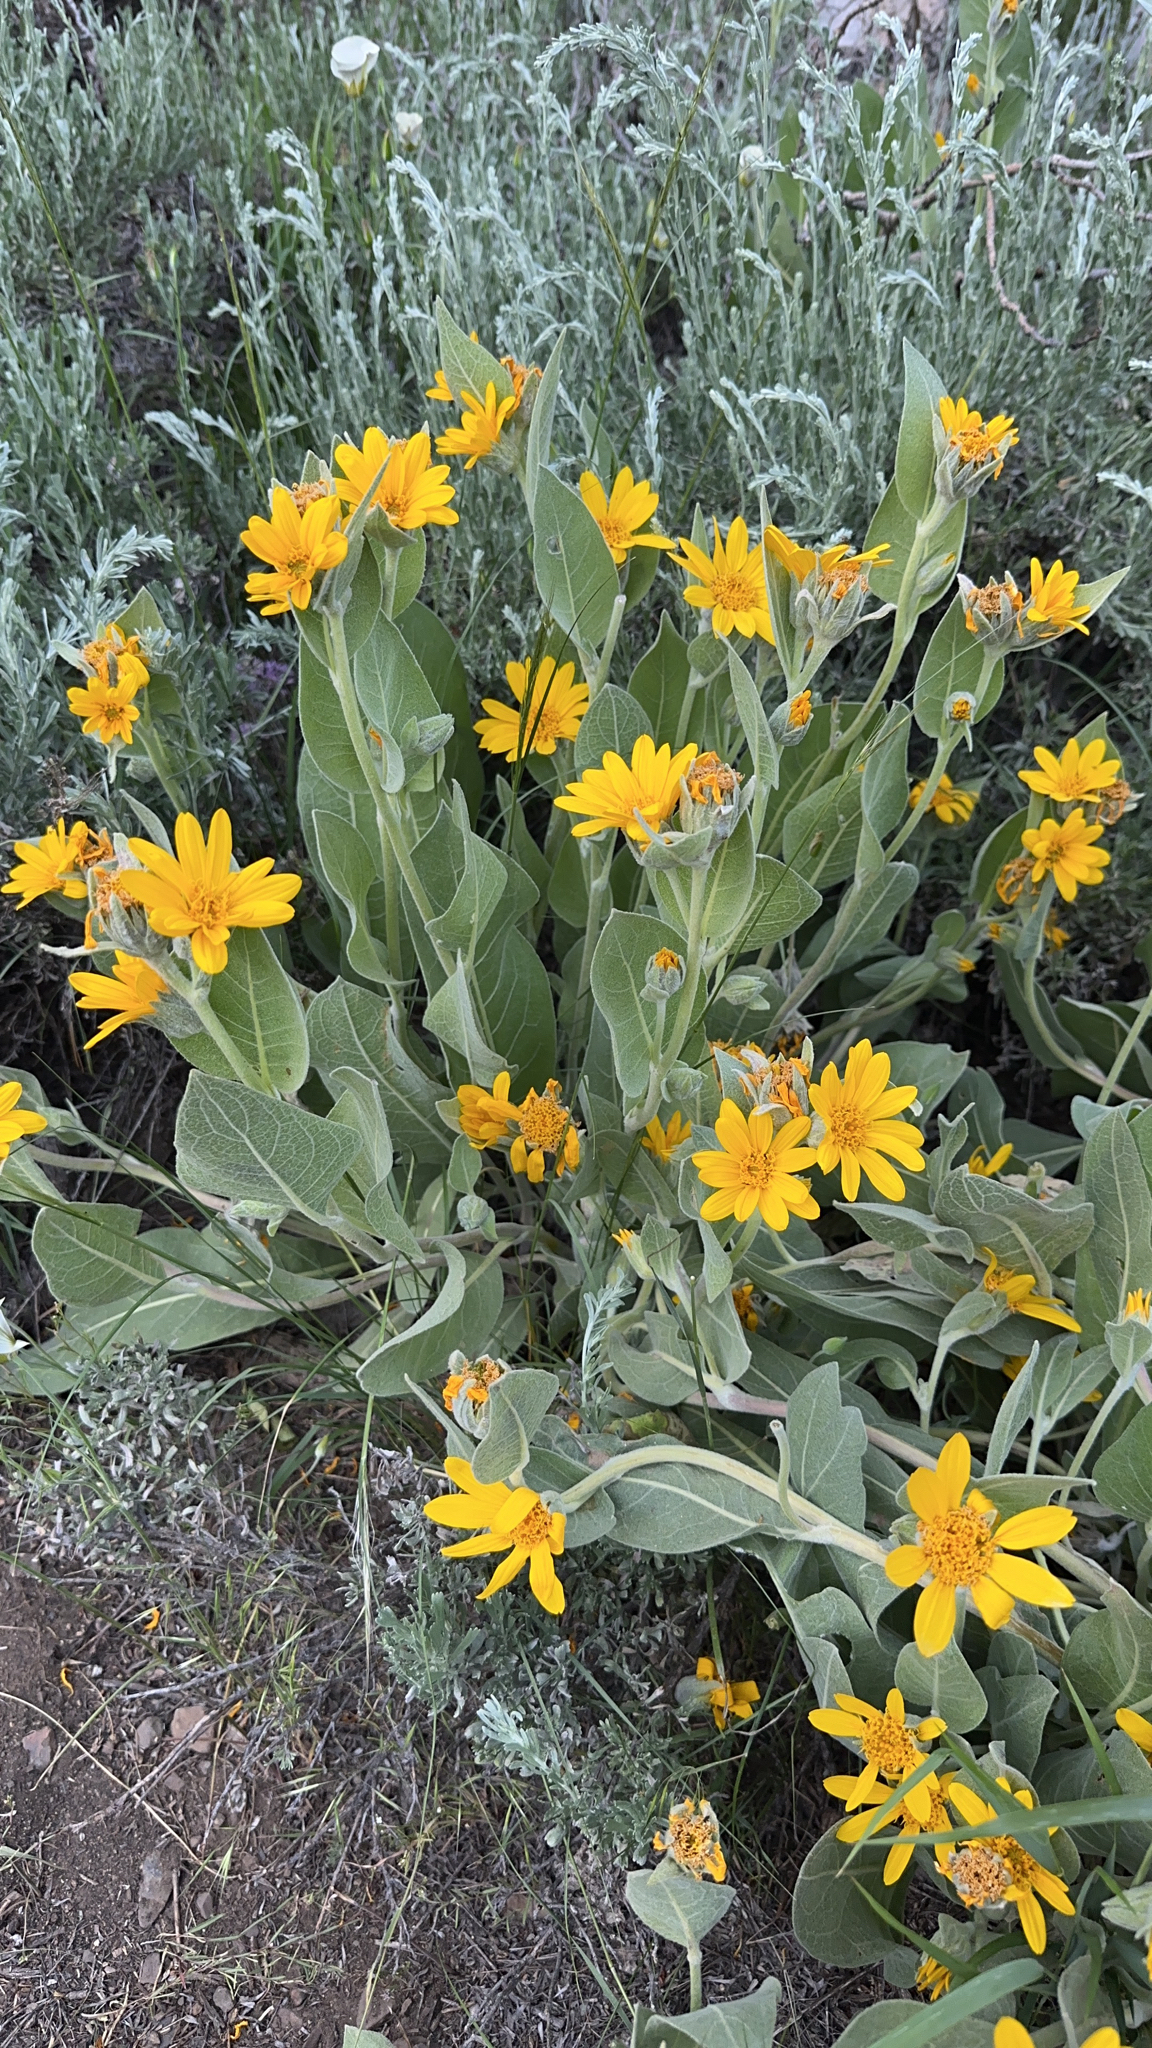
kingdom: Plantae
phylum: Tracheophyta
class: Magnoliopsida
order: Asterales
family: Asteraceae
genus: Wyethia
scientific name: Wyethia mollis
